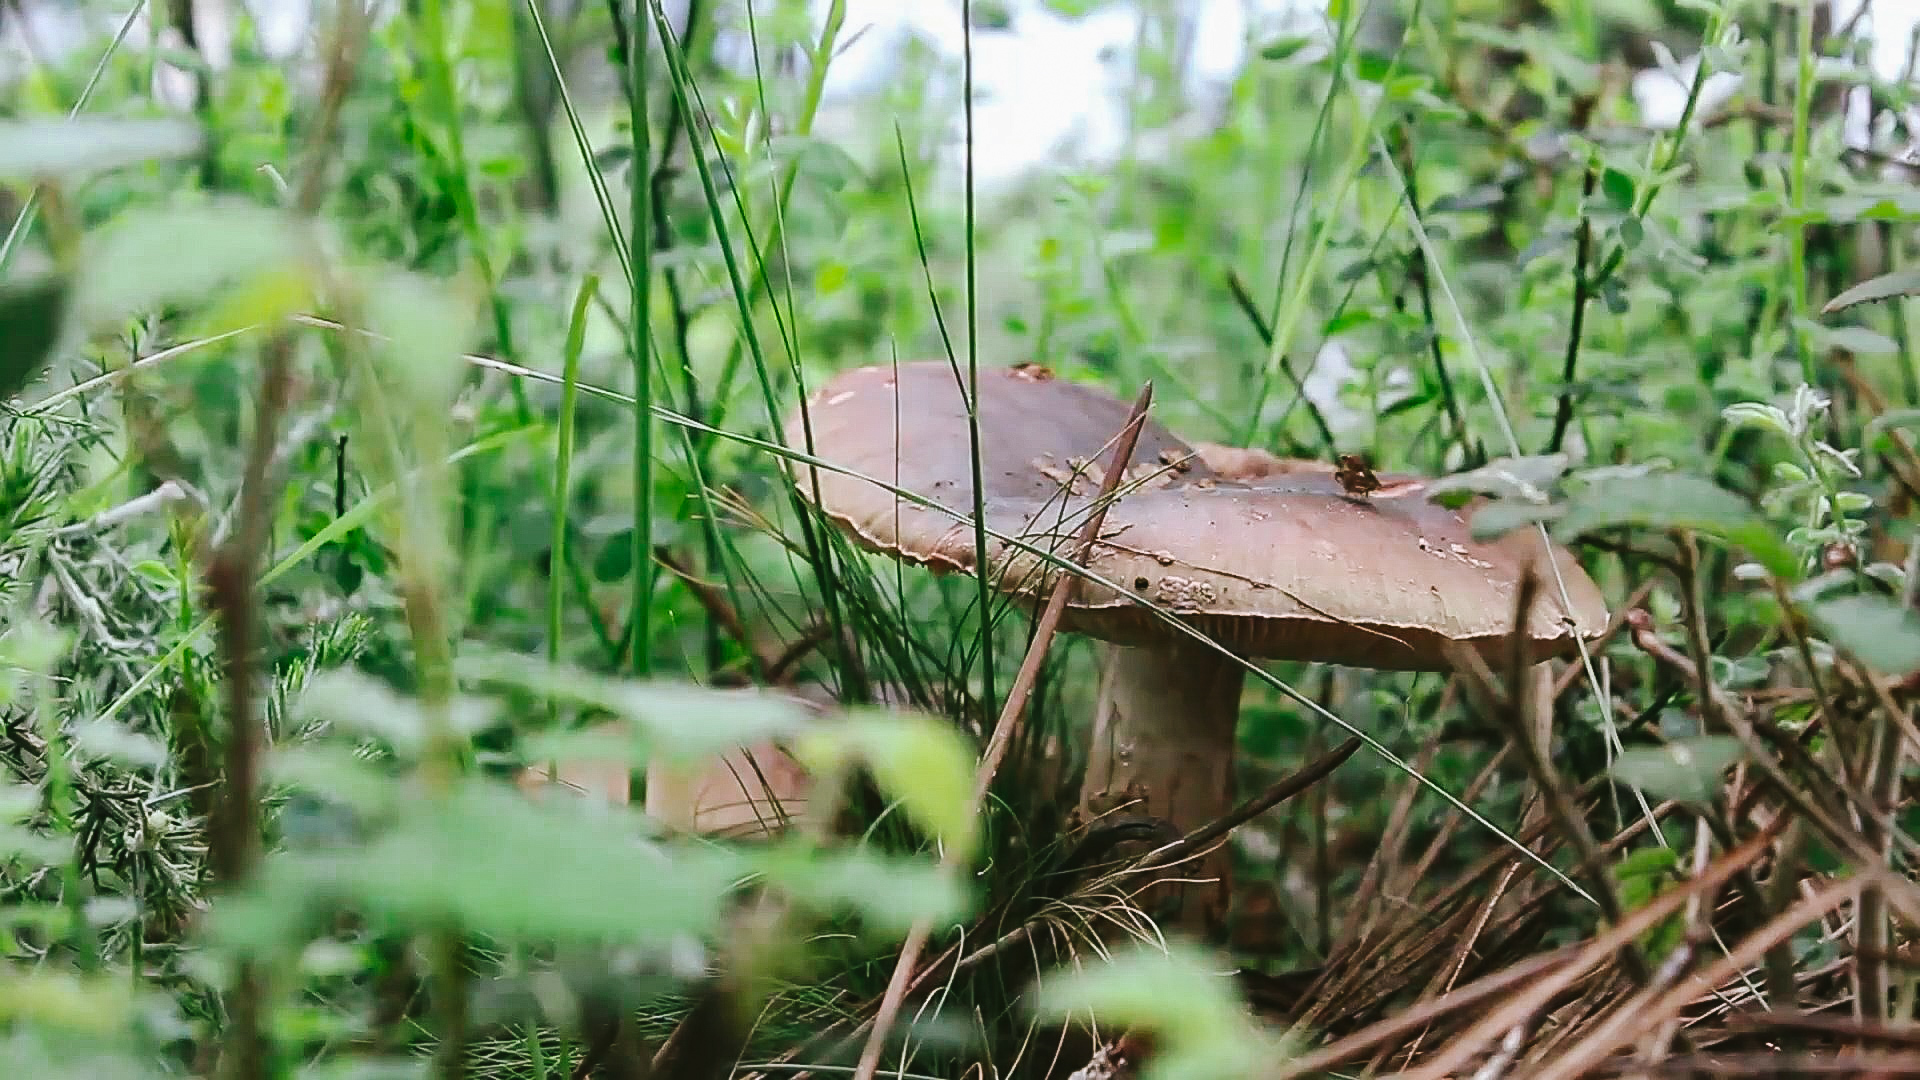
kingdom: Fungi
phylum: Basidiomycota
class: Agaricomycetes
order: Agaricales
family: Amanitaceae
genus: Amanita
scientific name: Amanita rubescens
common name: Blusher
